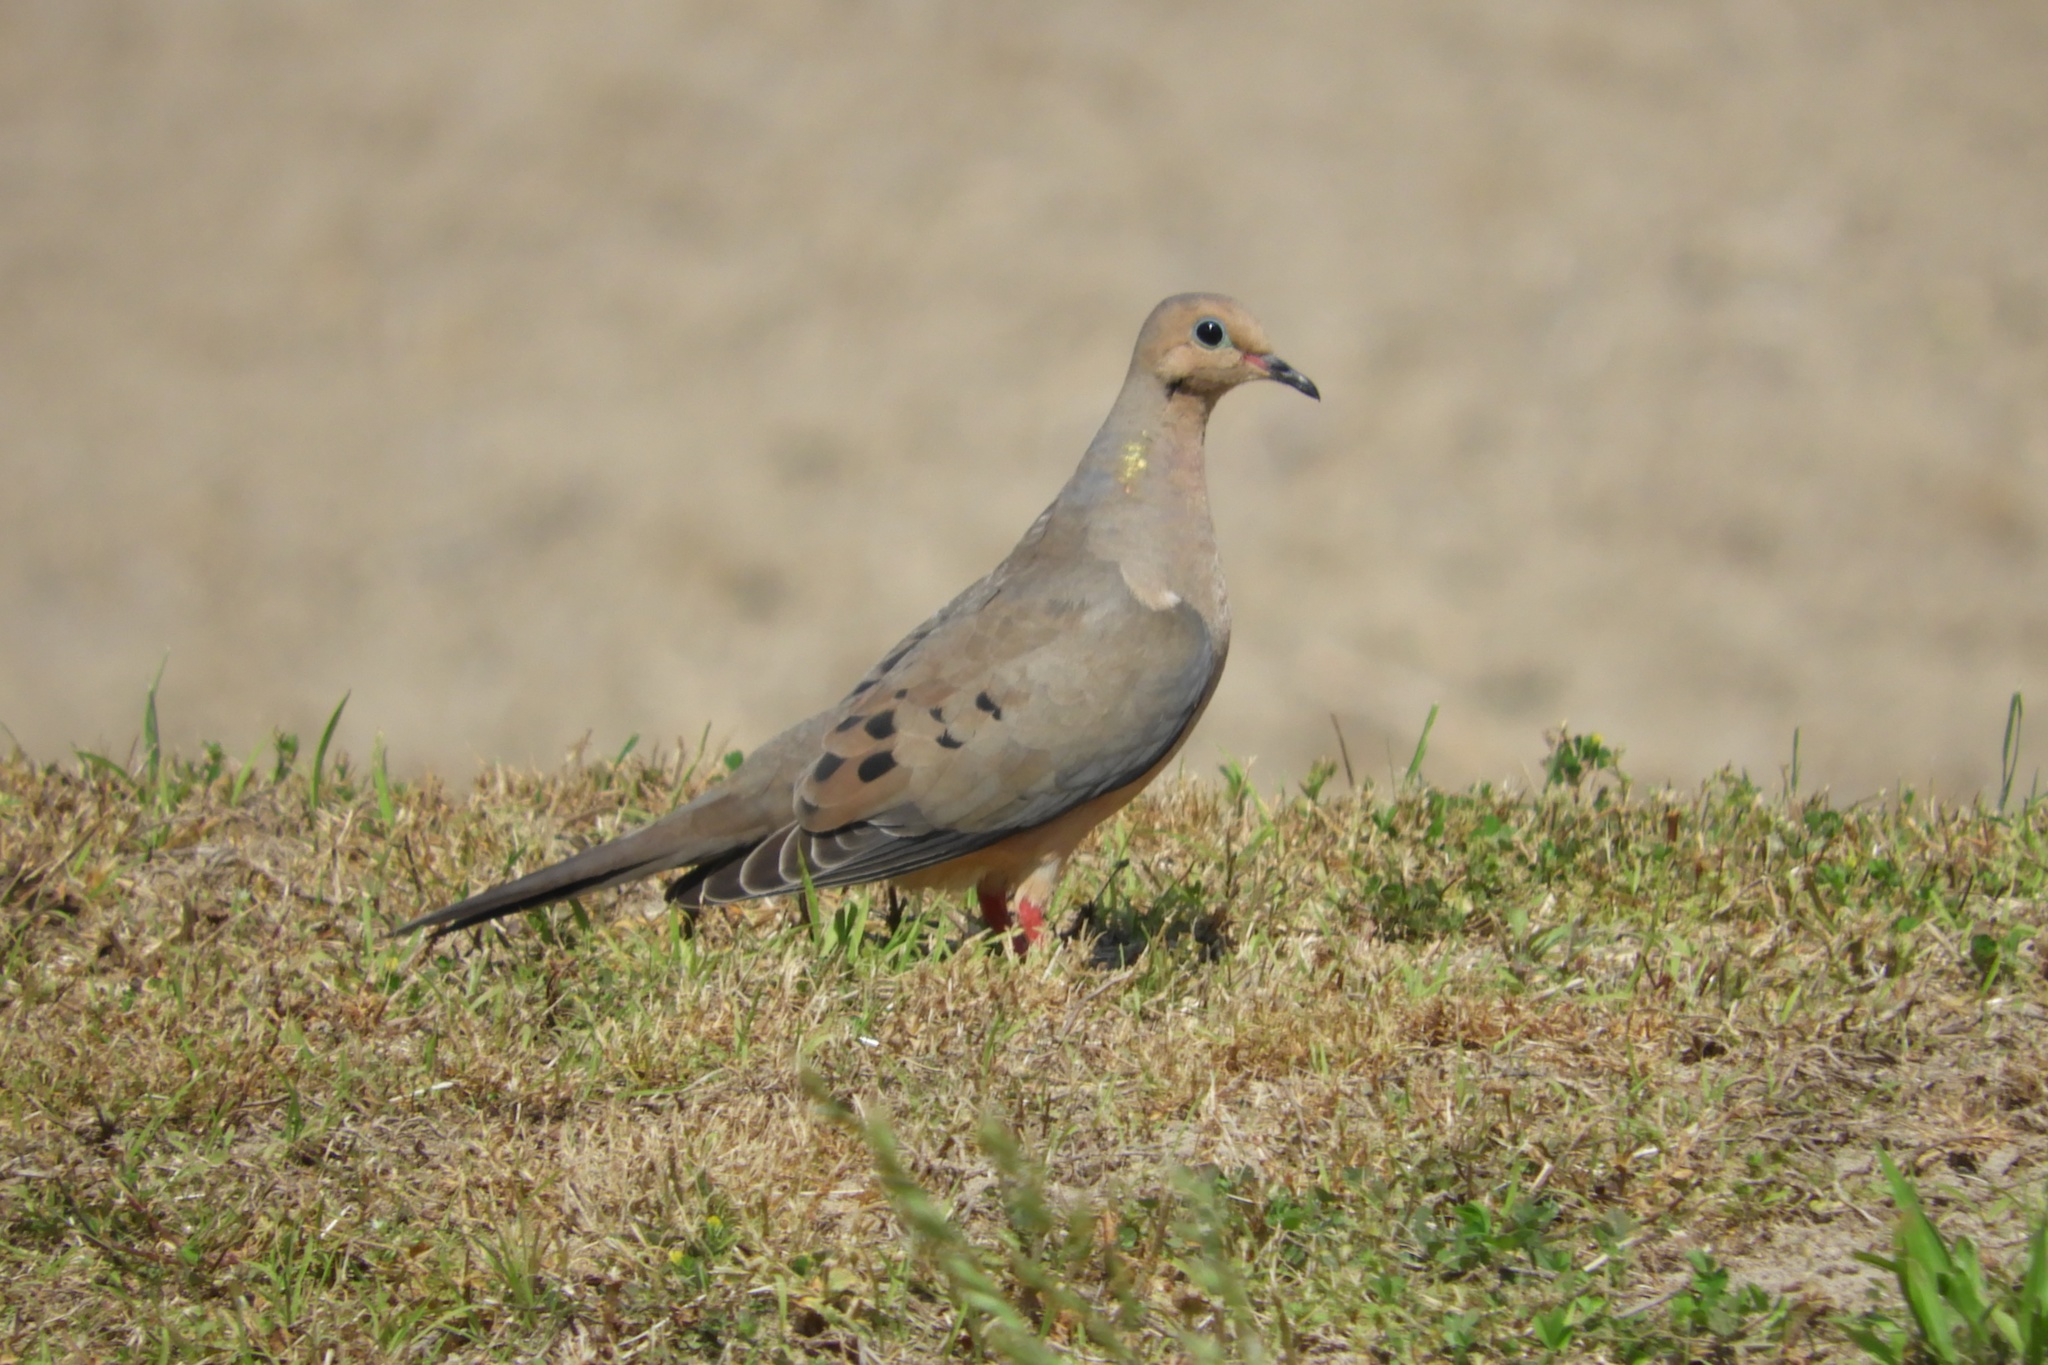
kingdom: Animalia
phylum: Chordata
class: Aves
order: Columbiformes
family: Columbidae
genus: Zenaida
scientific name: Zenaida macroura
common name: Mourning dove
